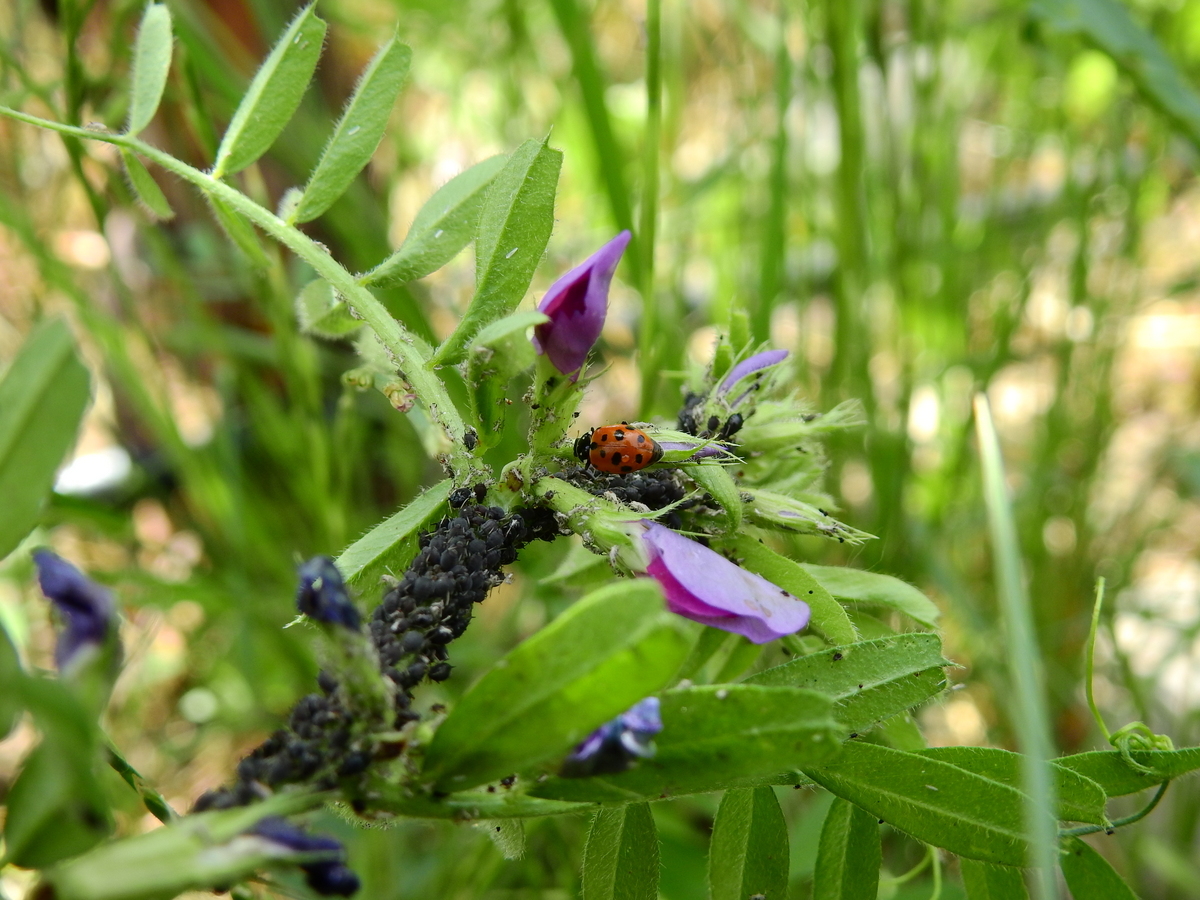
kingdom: Animalia
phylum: Arthropoda
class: Insecta
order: Coleoptera
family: Coccinellidae
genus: Hippodamia
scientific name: Hippodamia variegata
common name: Ladybird beetle
